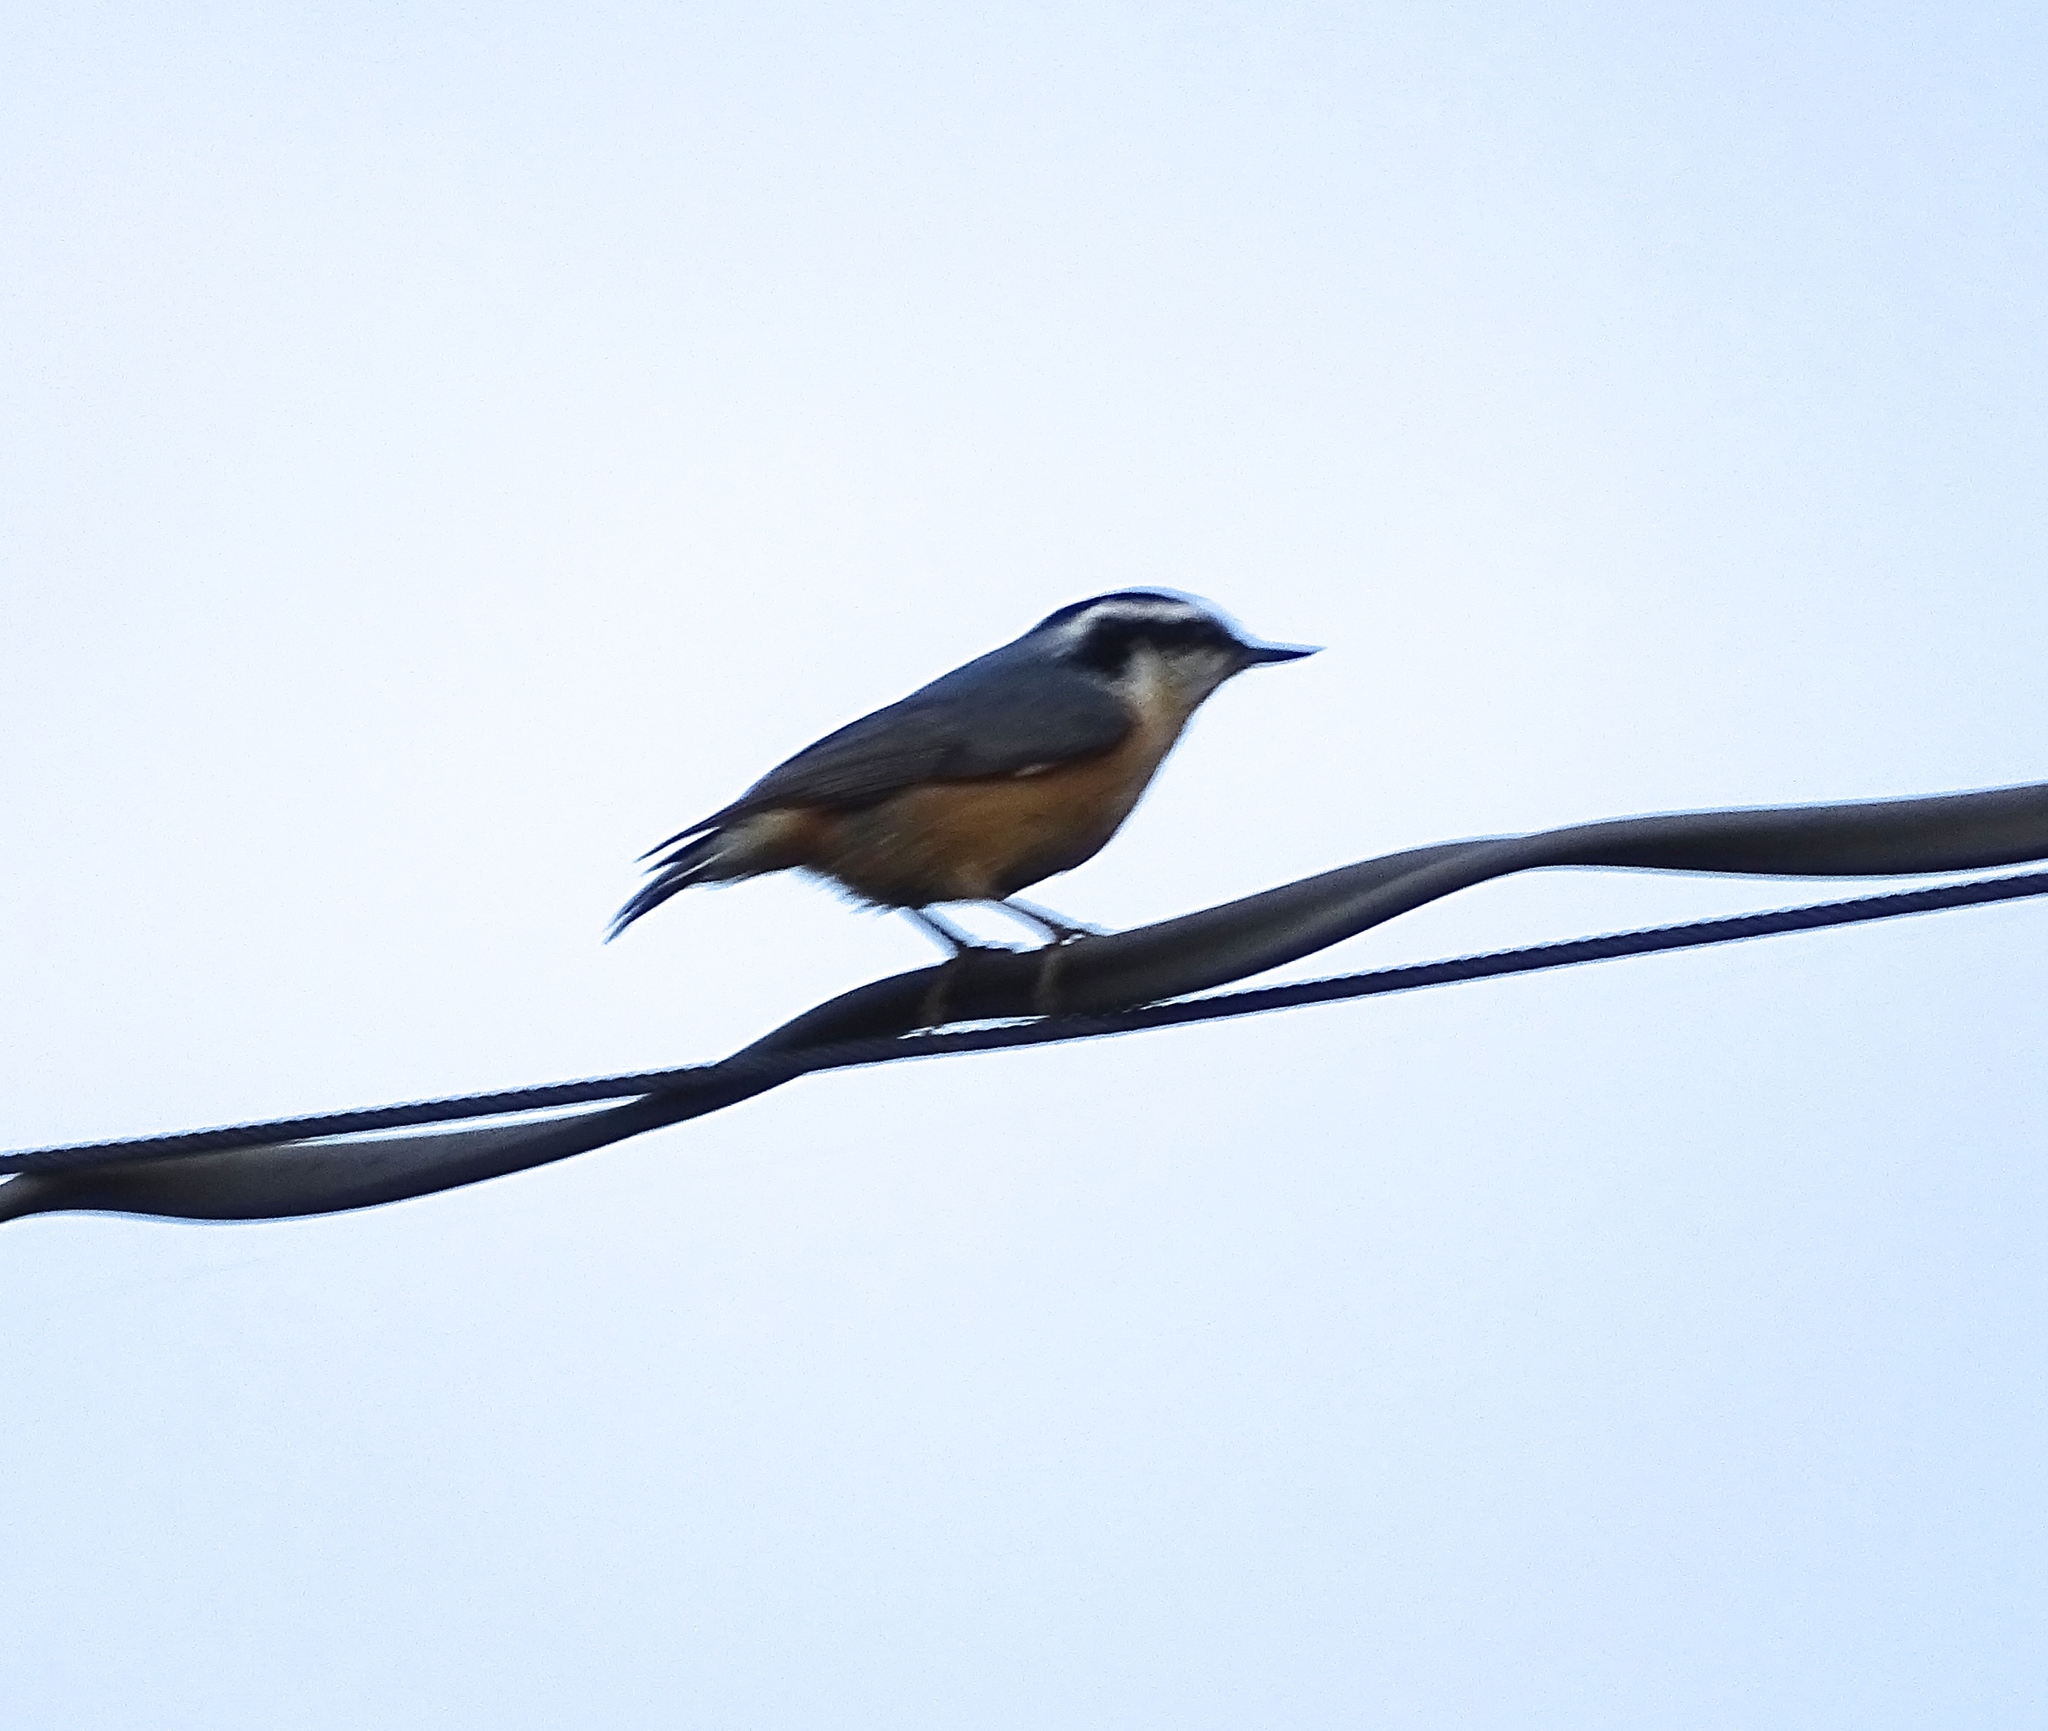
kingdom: Animalia
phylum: Chordata
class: Aves
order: Passeriformes
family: Sittidae
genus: Sitta
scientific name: Sitta canadensis
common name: Red-breasted nuthatch
